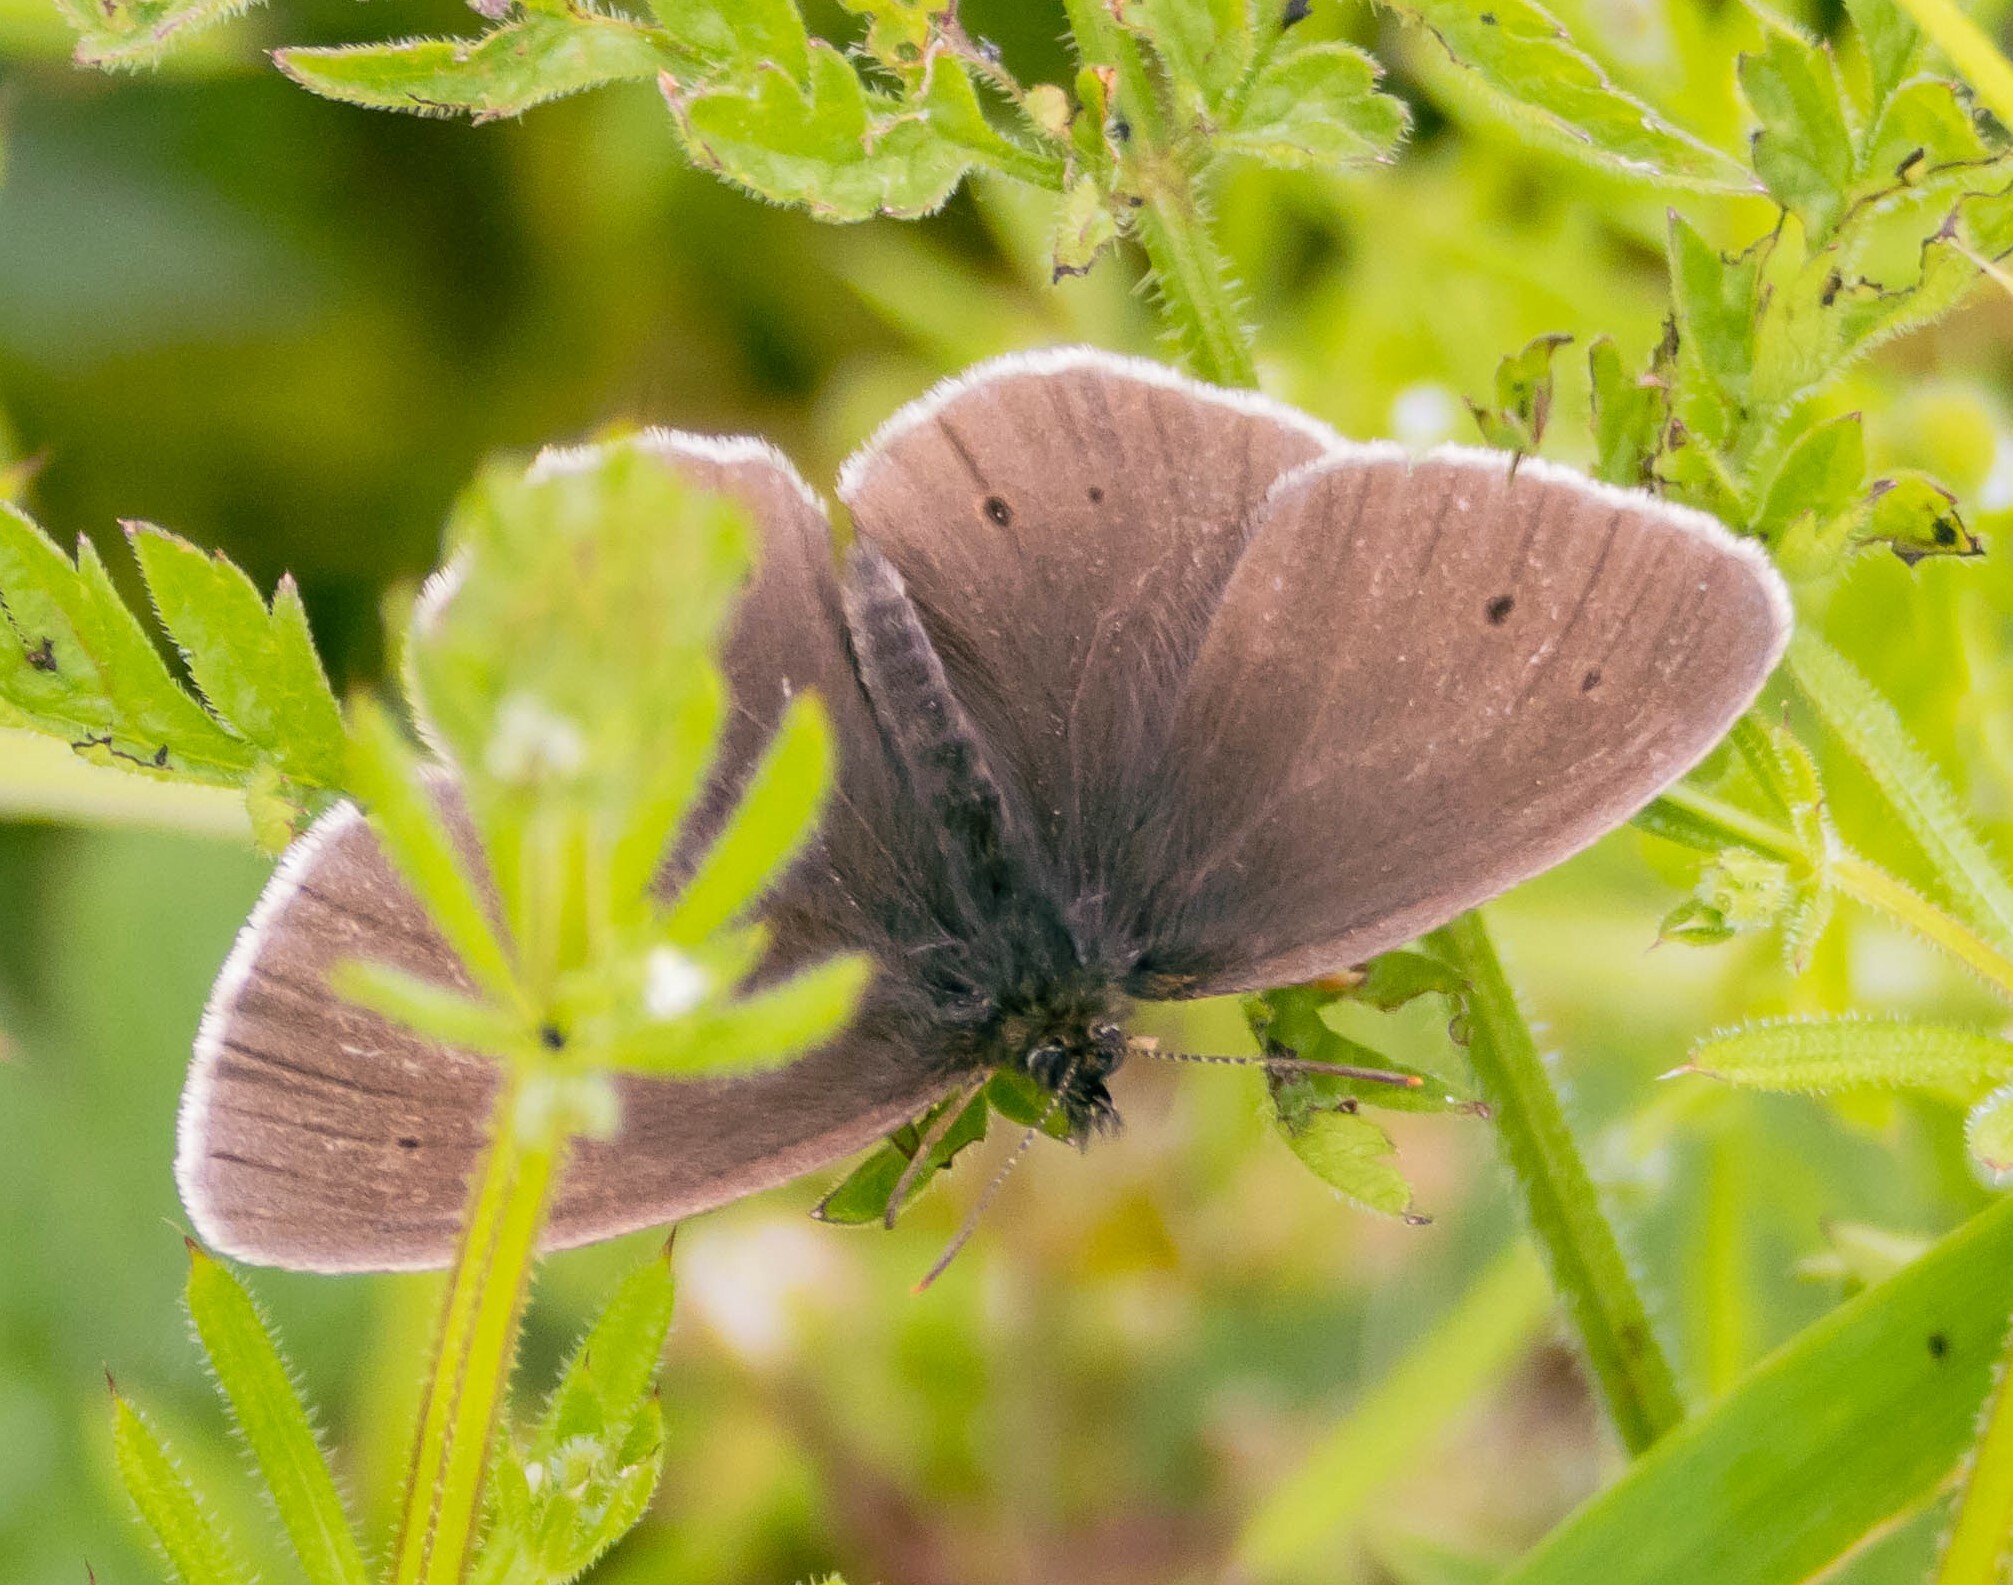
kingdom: Animalia
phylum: Arthropoda
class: Insecta
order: Lepidoptera
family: Nymphalidae
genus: Aphantopus
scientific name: Aphantopus hyperantus
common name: Ringlet
